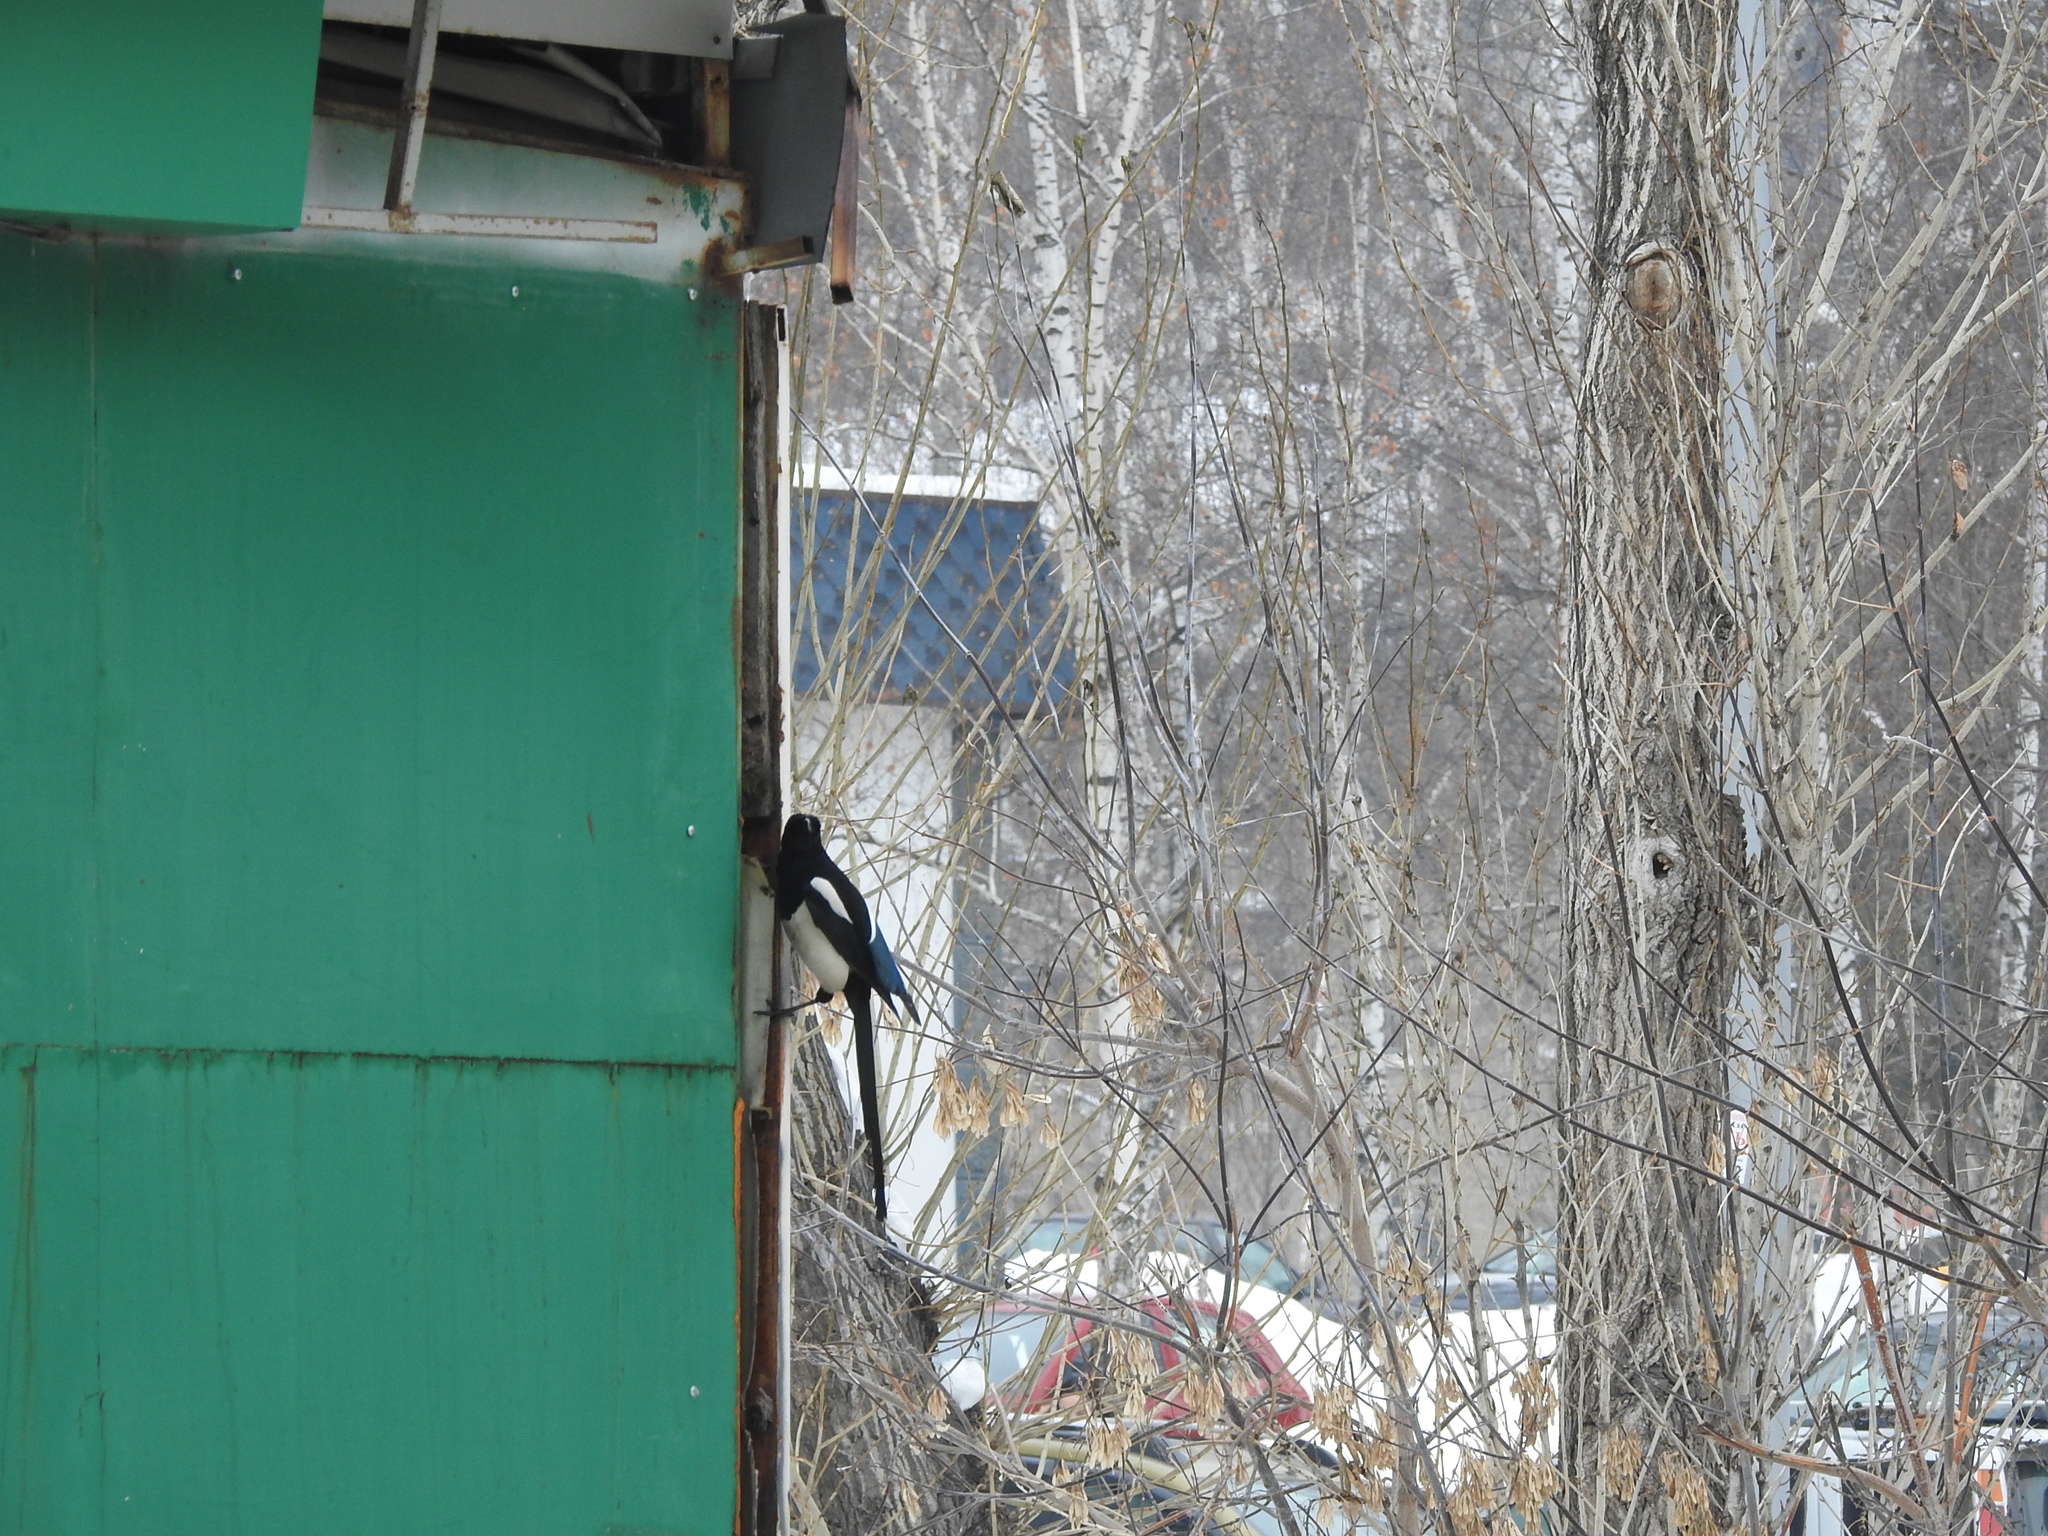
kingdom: Animalia
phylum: Chordata
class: Aves
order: Passeriformes
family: Corvidae
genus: Pica
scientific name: Pica pica
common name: Eurasian magpie
